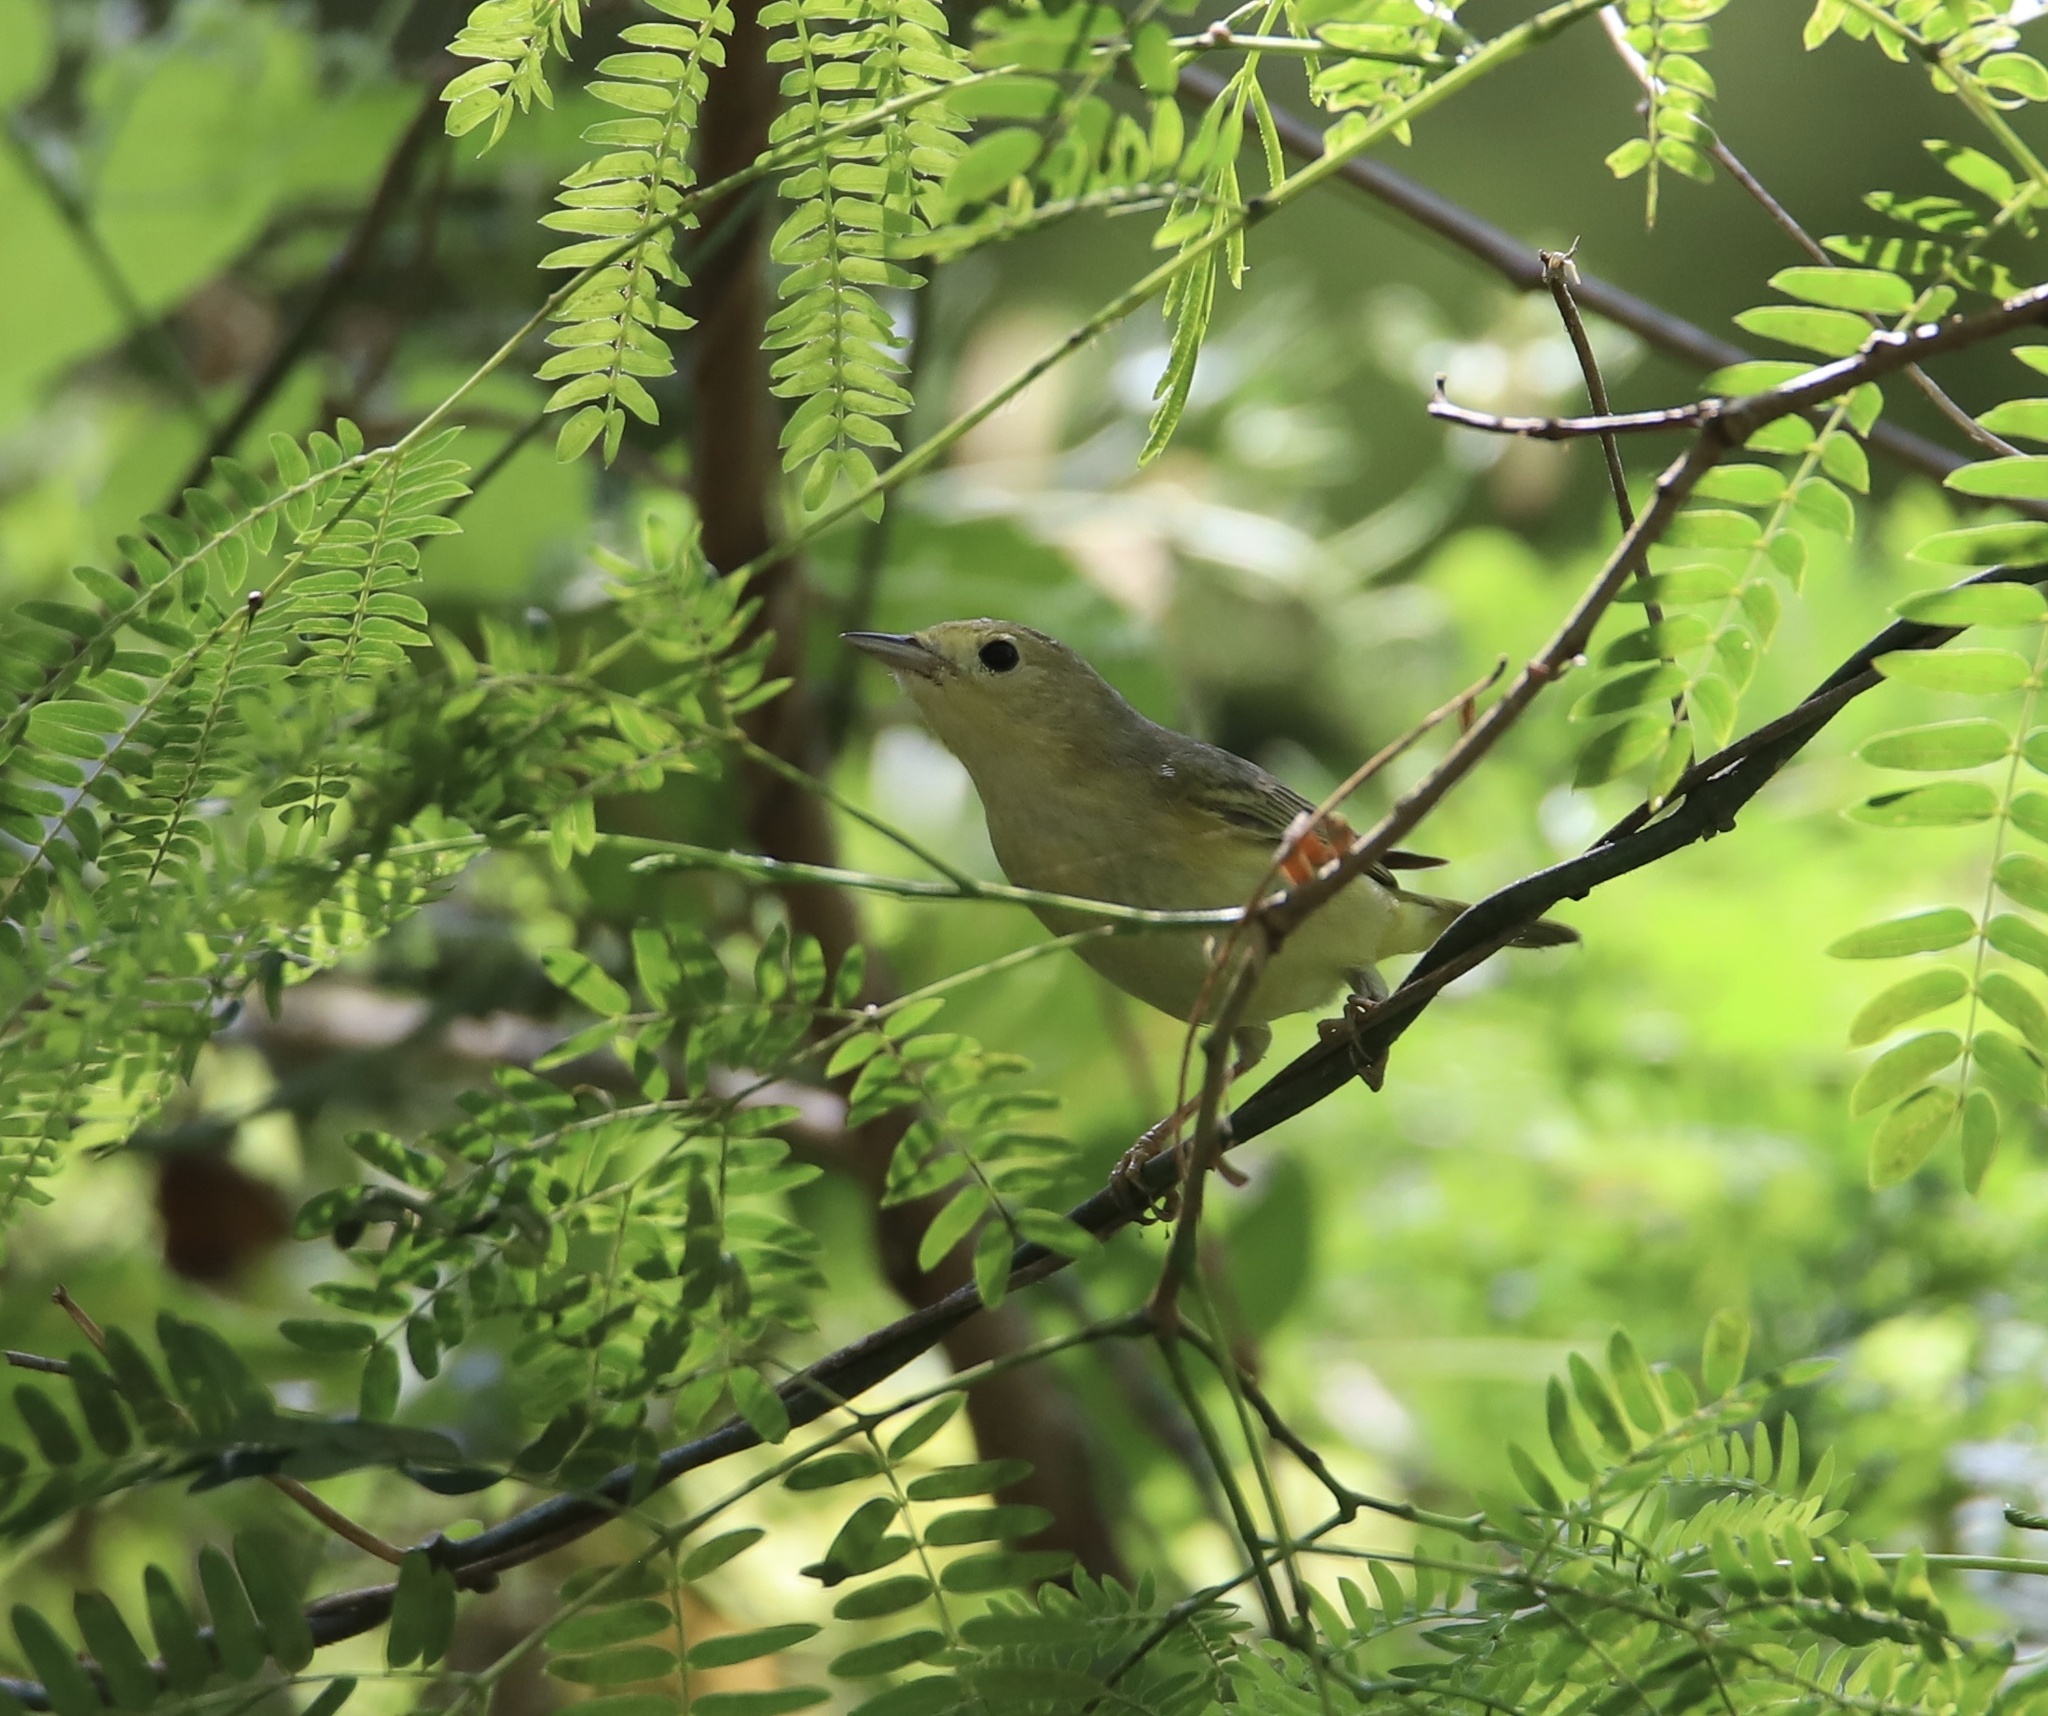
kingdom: Animalia
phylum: Chordata
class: Aves
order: Passeriformes
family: Parulidae
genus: Setophaga
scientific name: Setophaga petechia
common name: Yellow warbler
